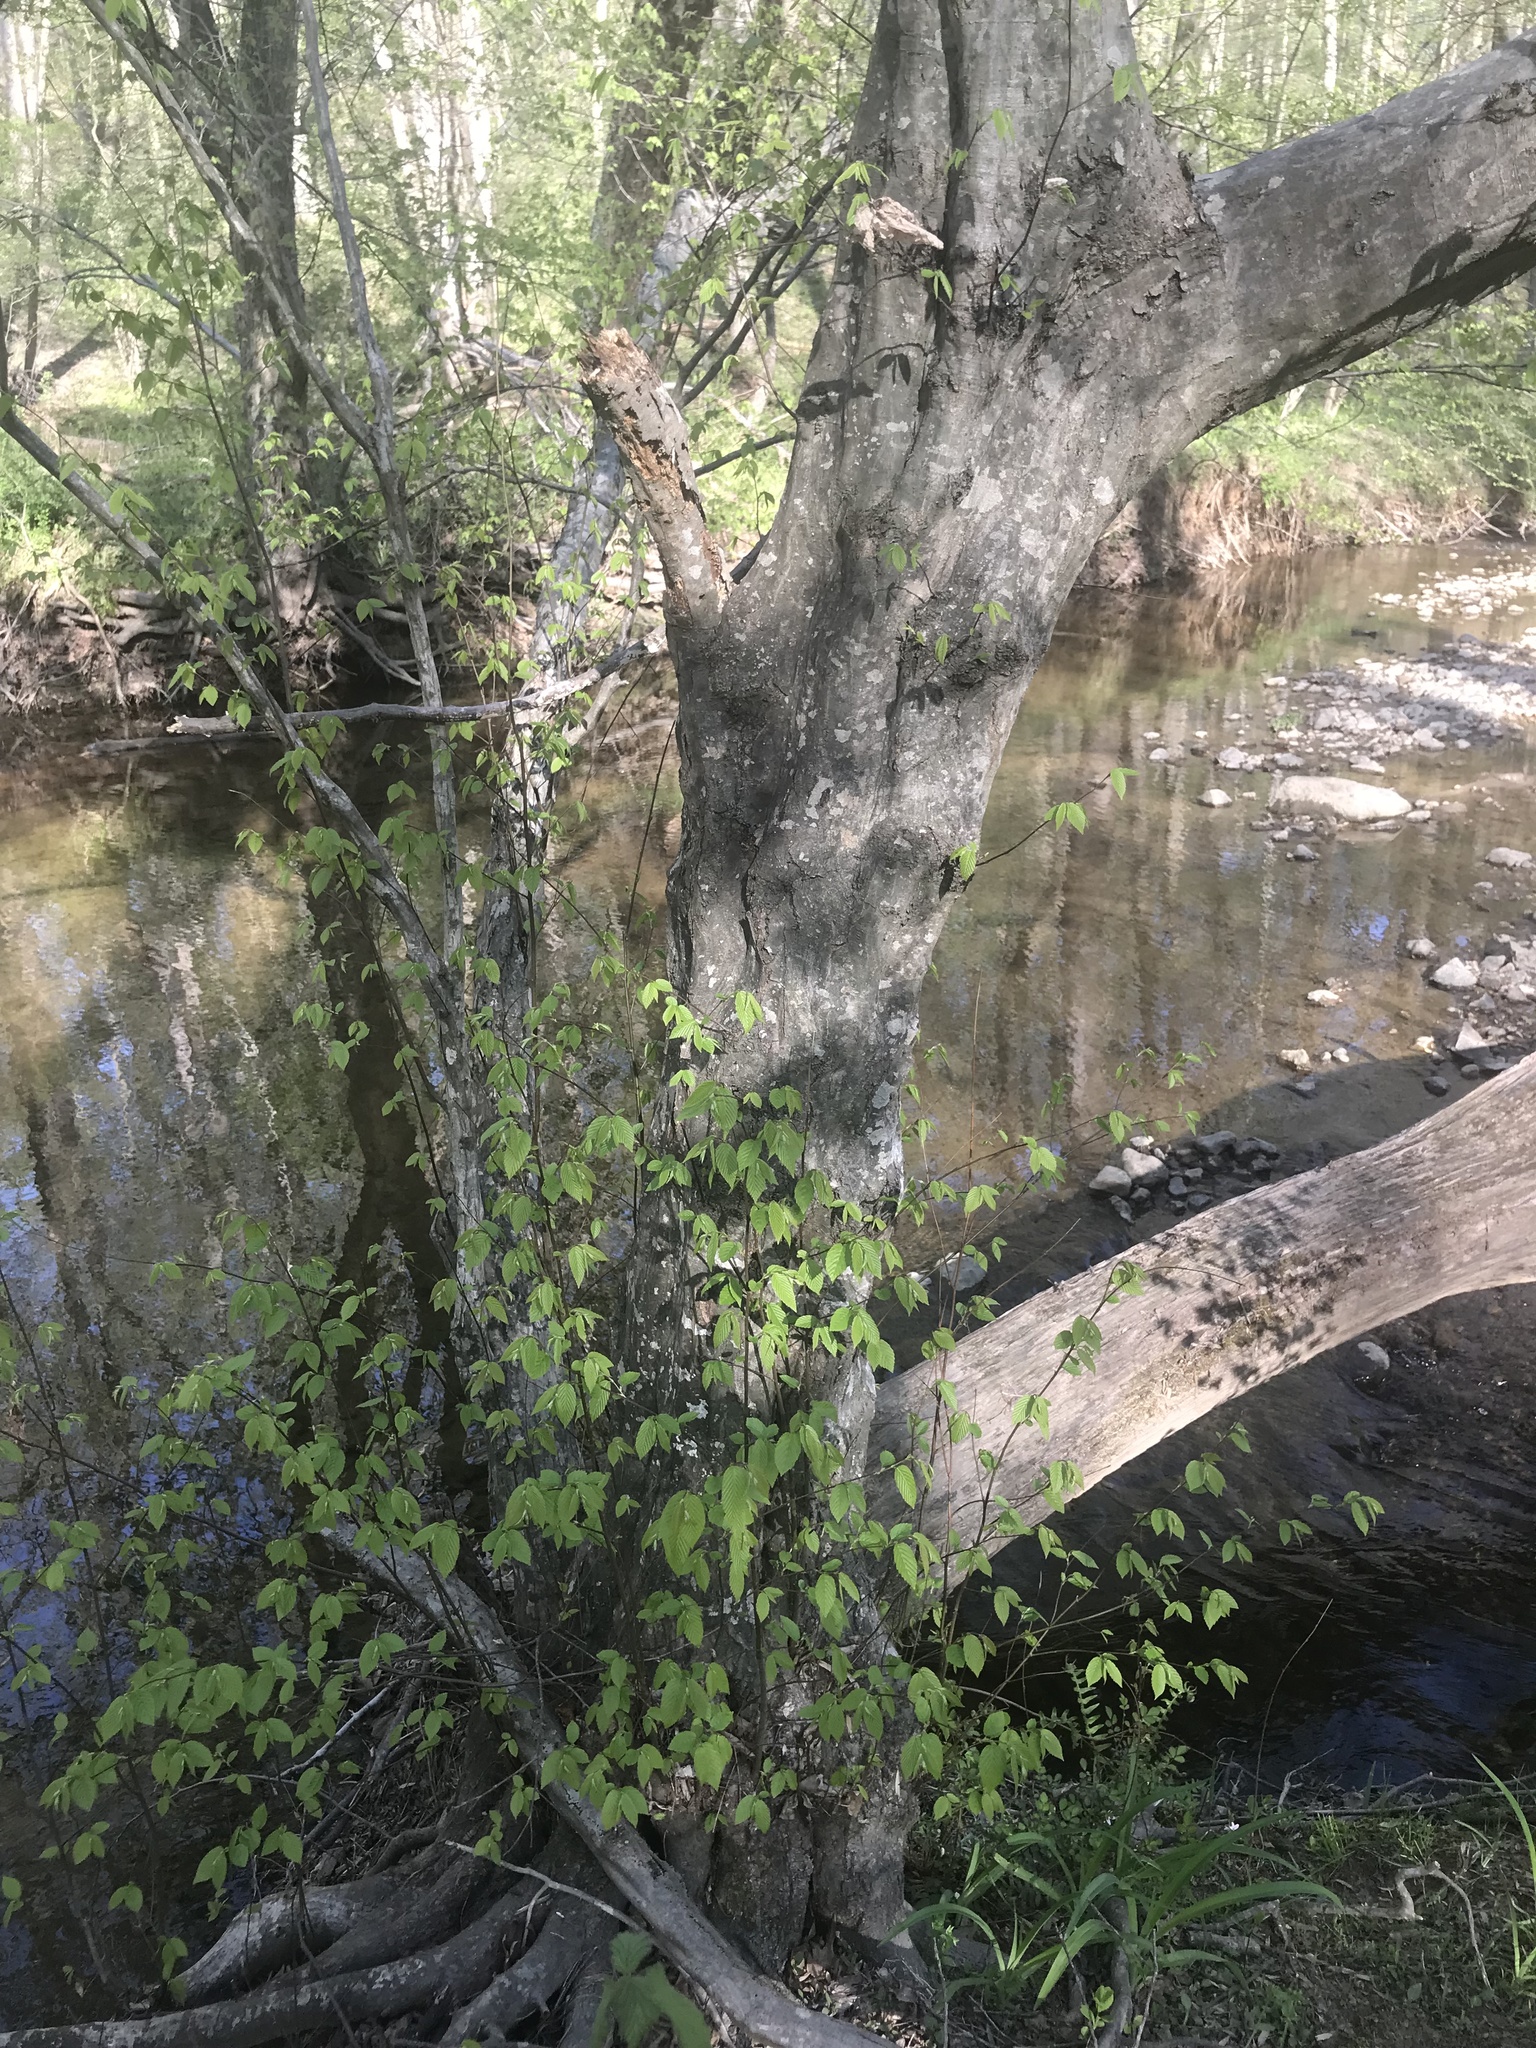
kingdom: Plantae
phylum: Tracheophyta
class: Magnoliopsida
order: Fagales
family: Betulaceae
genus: Carpinus
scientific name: Carpinus caroliniana
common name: American hornbeam
